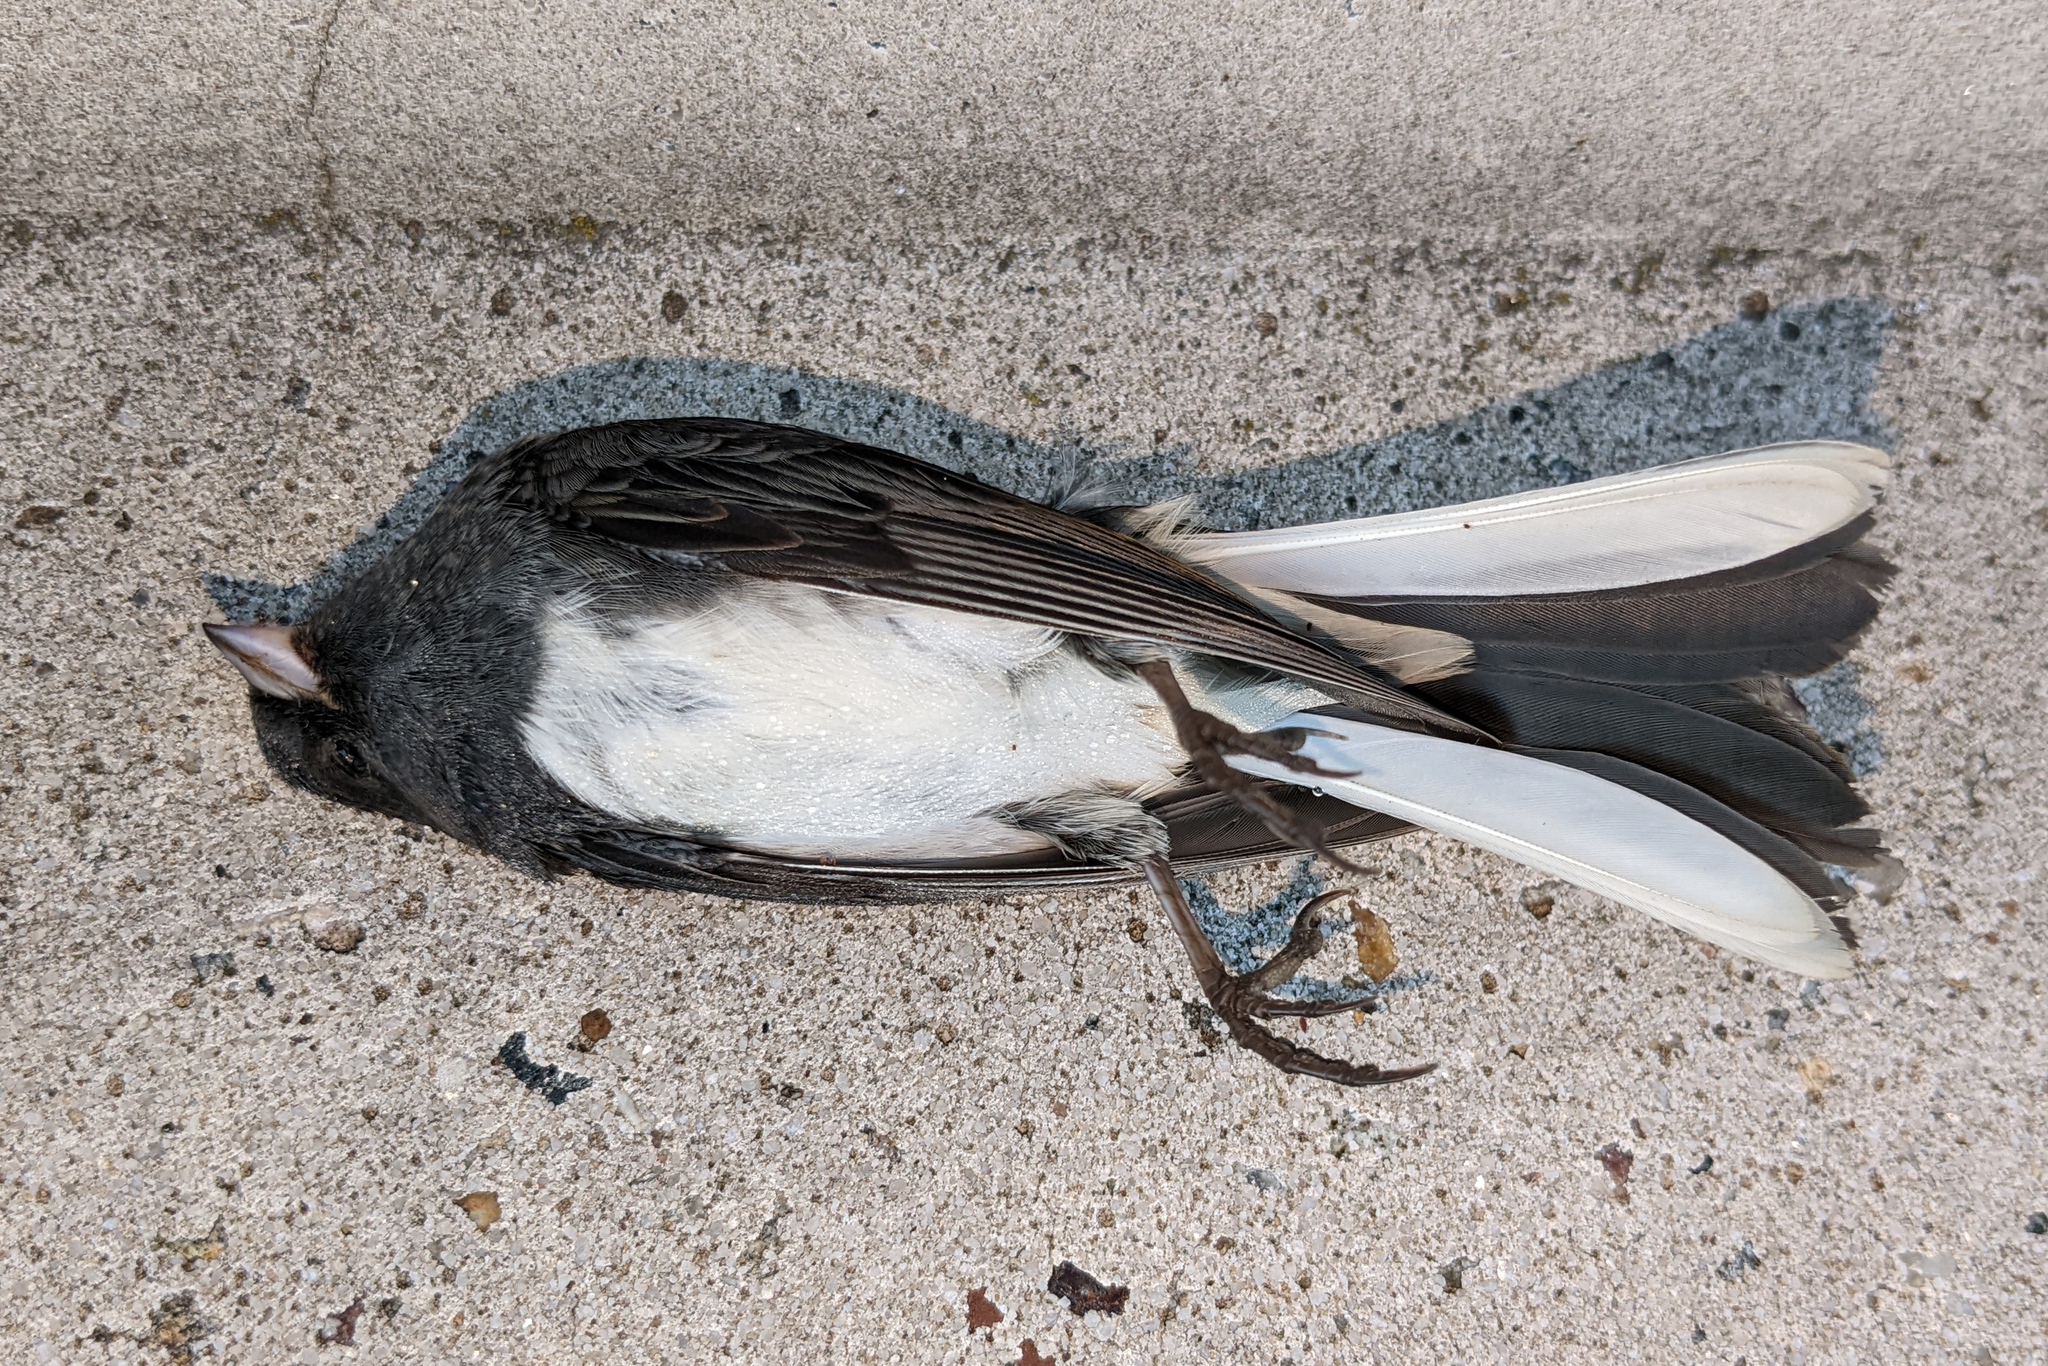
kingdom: Animalia
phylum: Chordata
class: Aves
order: Passeriformes
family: Passerellidae
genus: Junco
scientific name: Junco hyemalis
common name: Dark-eyed junco
